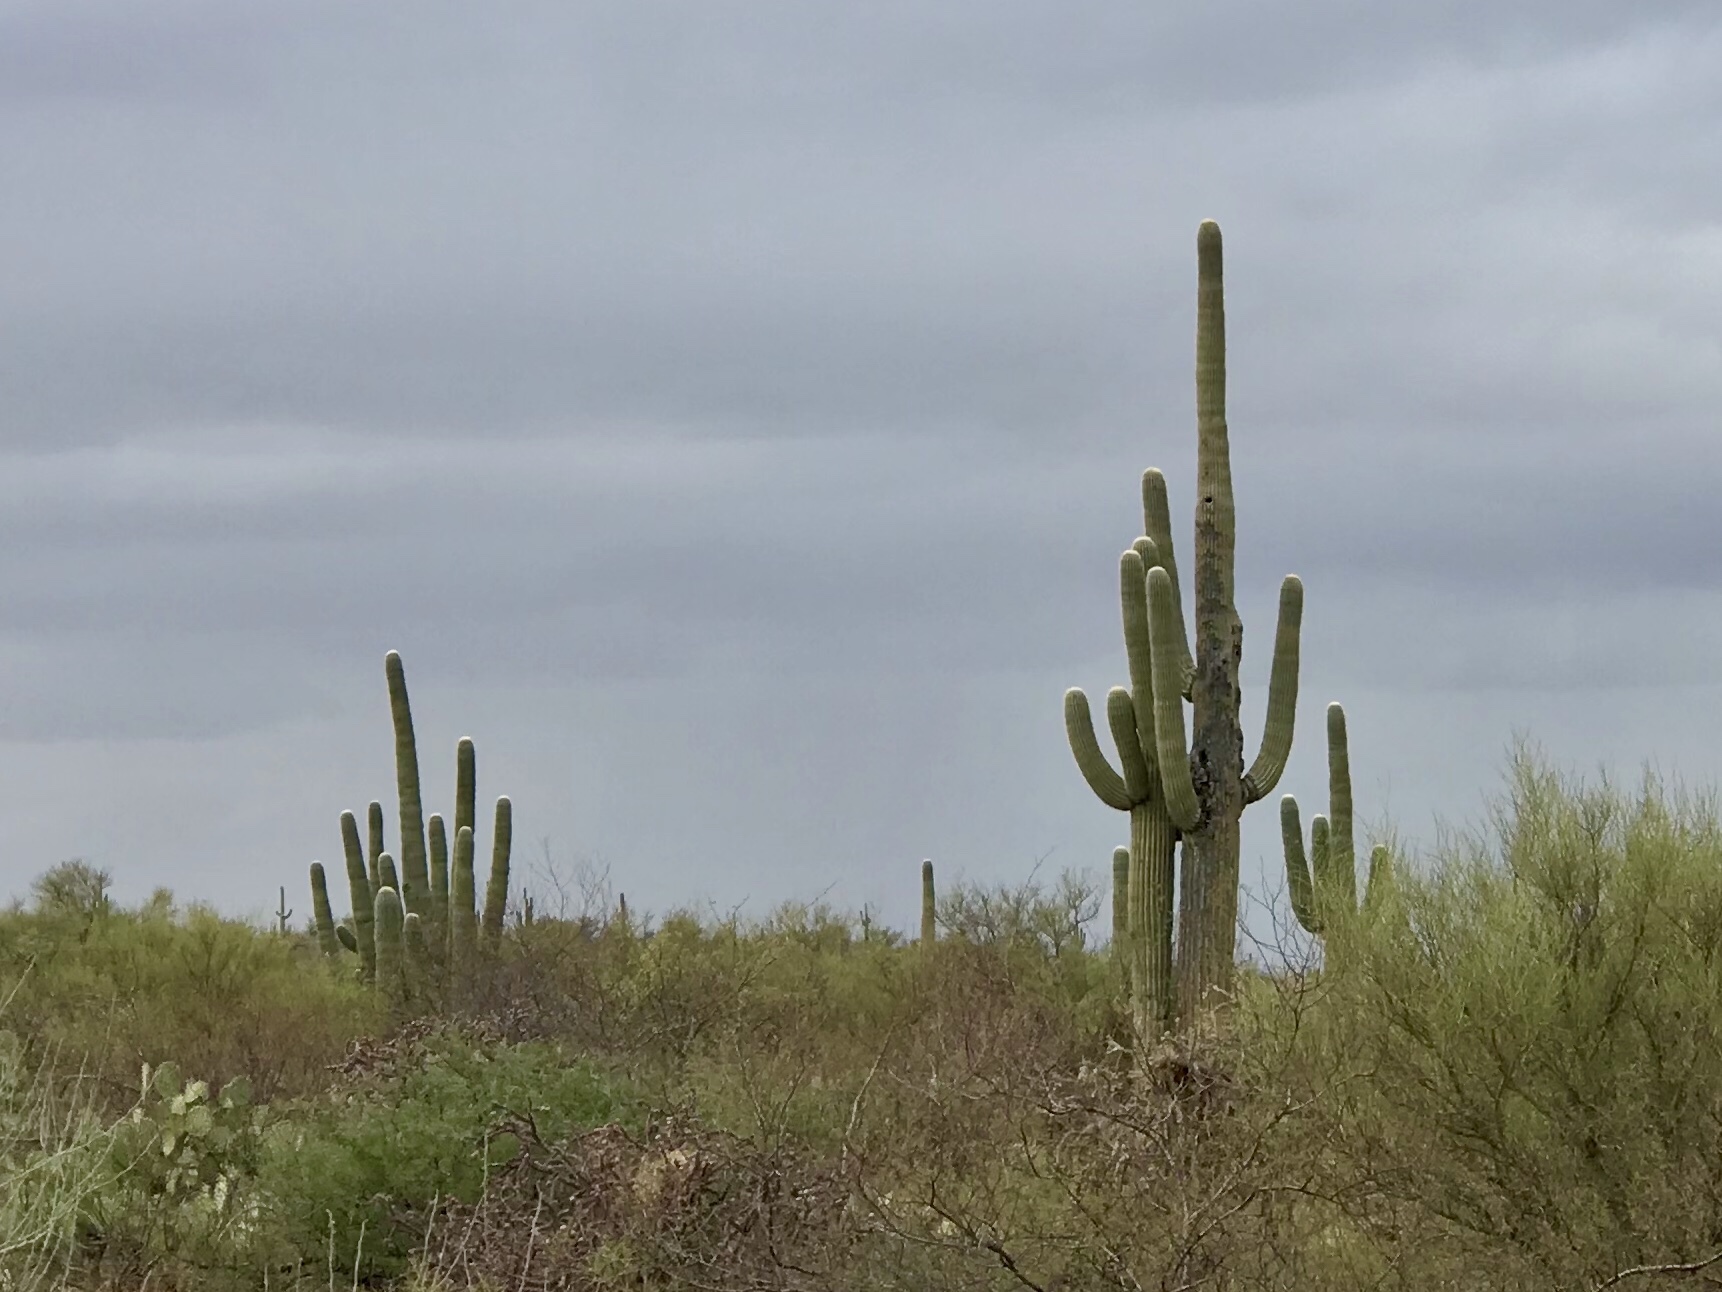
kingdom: Plantae
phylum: Tracheophyta
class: Magnoliopsida
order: Caryophyllales
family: Cactaceae
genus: Carnegiea
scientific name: Carnegiea gigantea
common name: Saguaro
